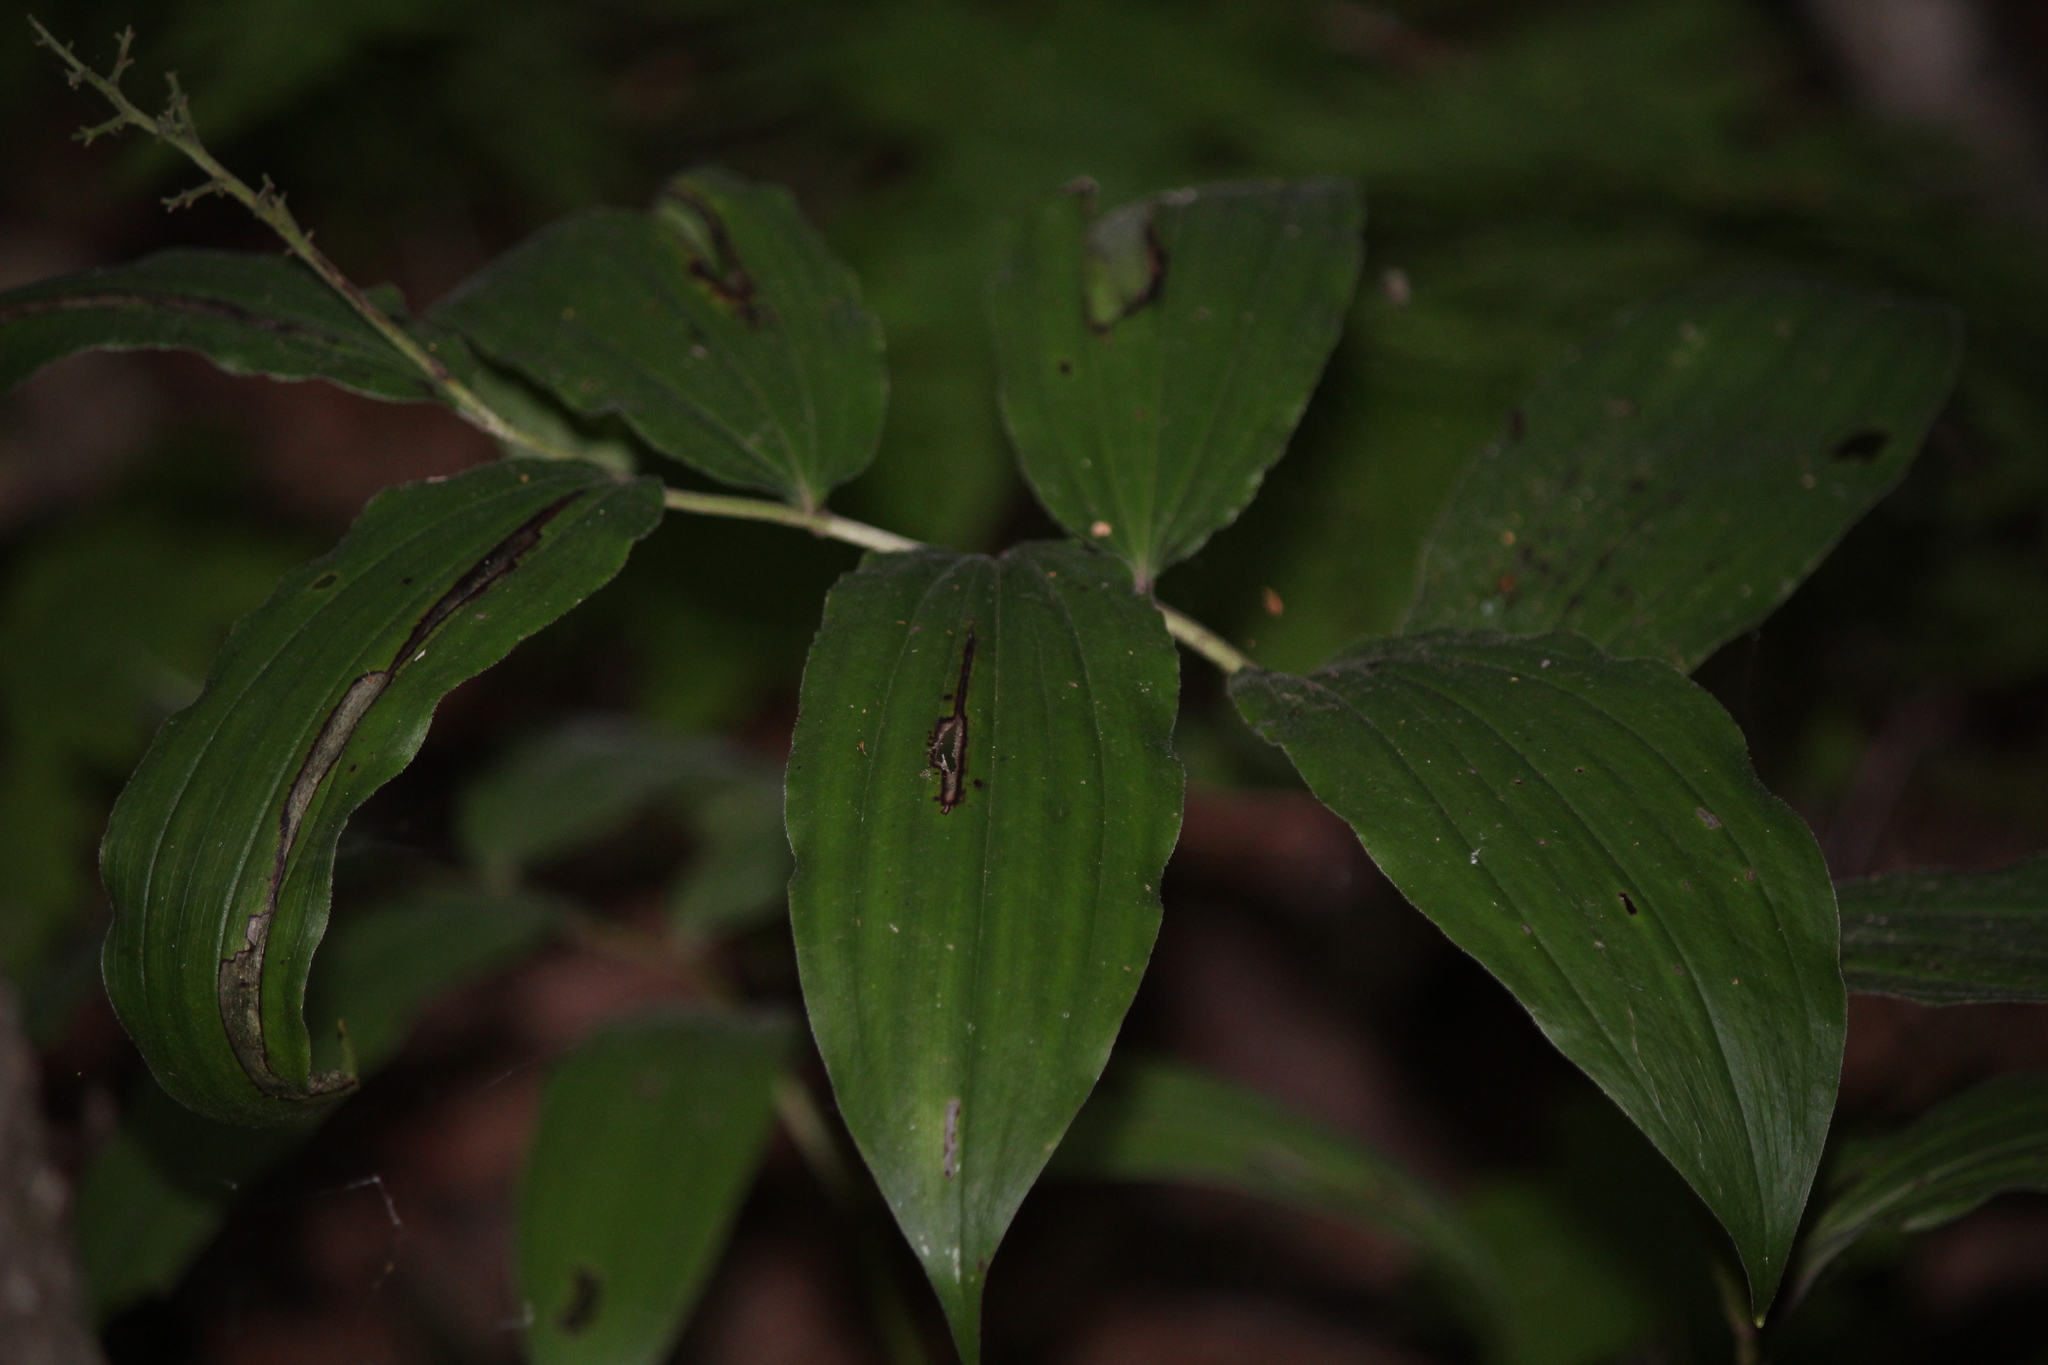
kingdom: Plantae
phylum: Tracheophyta
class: Liliopsida
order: Asparagales
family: Asparagaceae
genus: Maianthemum
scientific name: Maianthemum racemosum
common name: False spikenard
